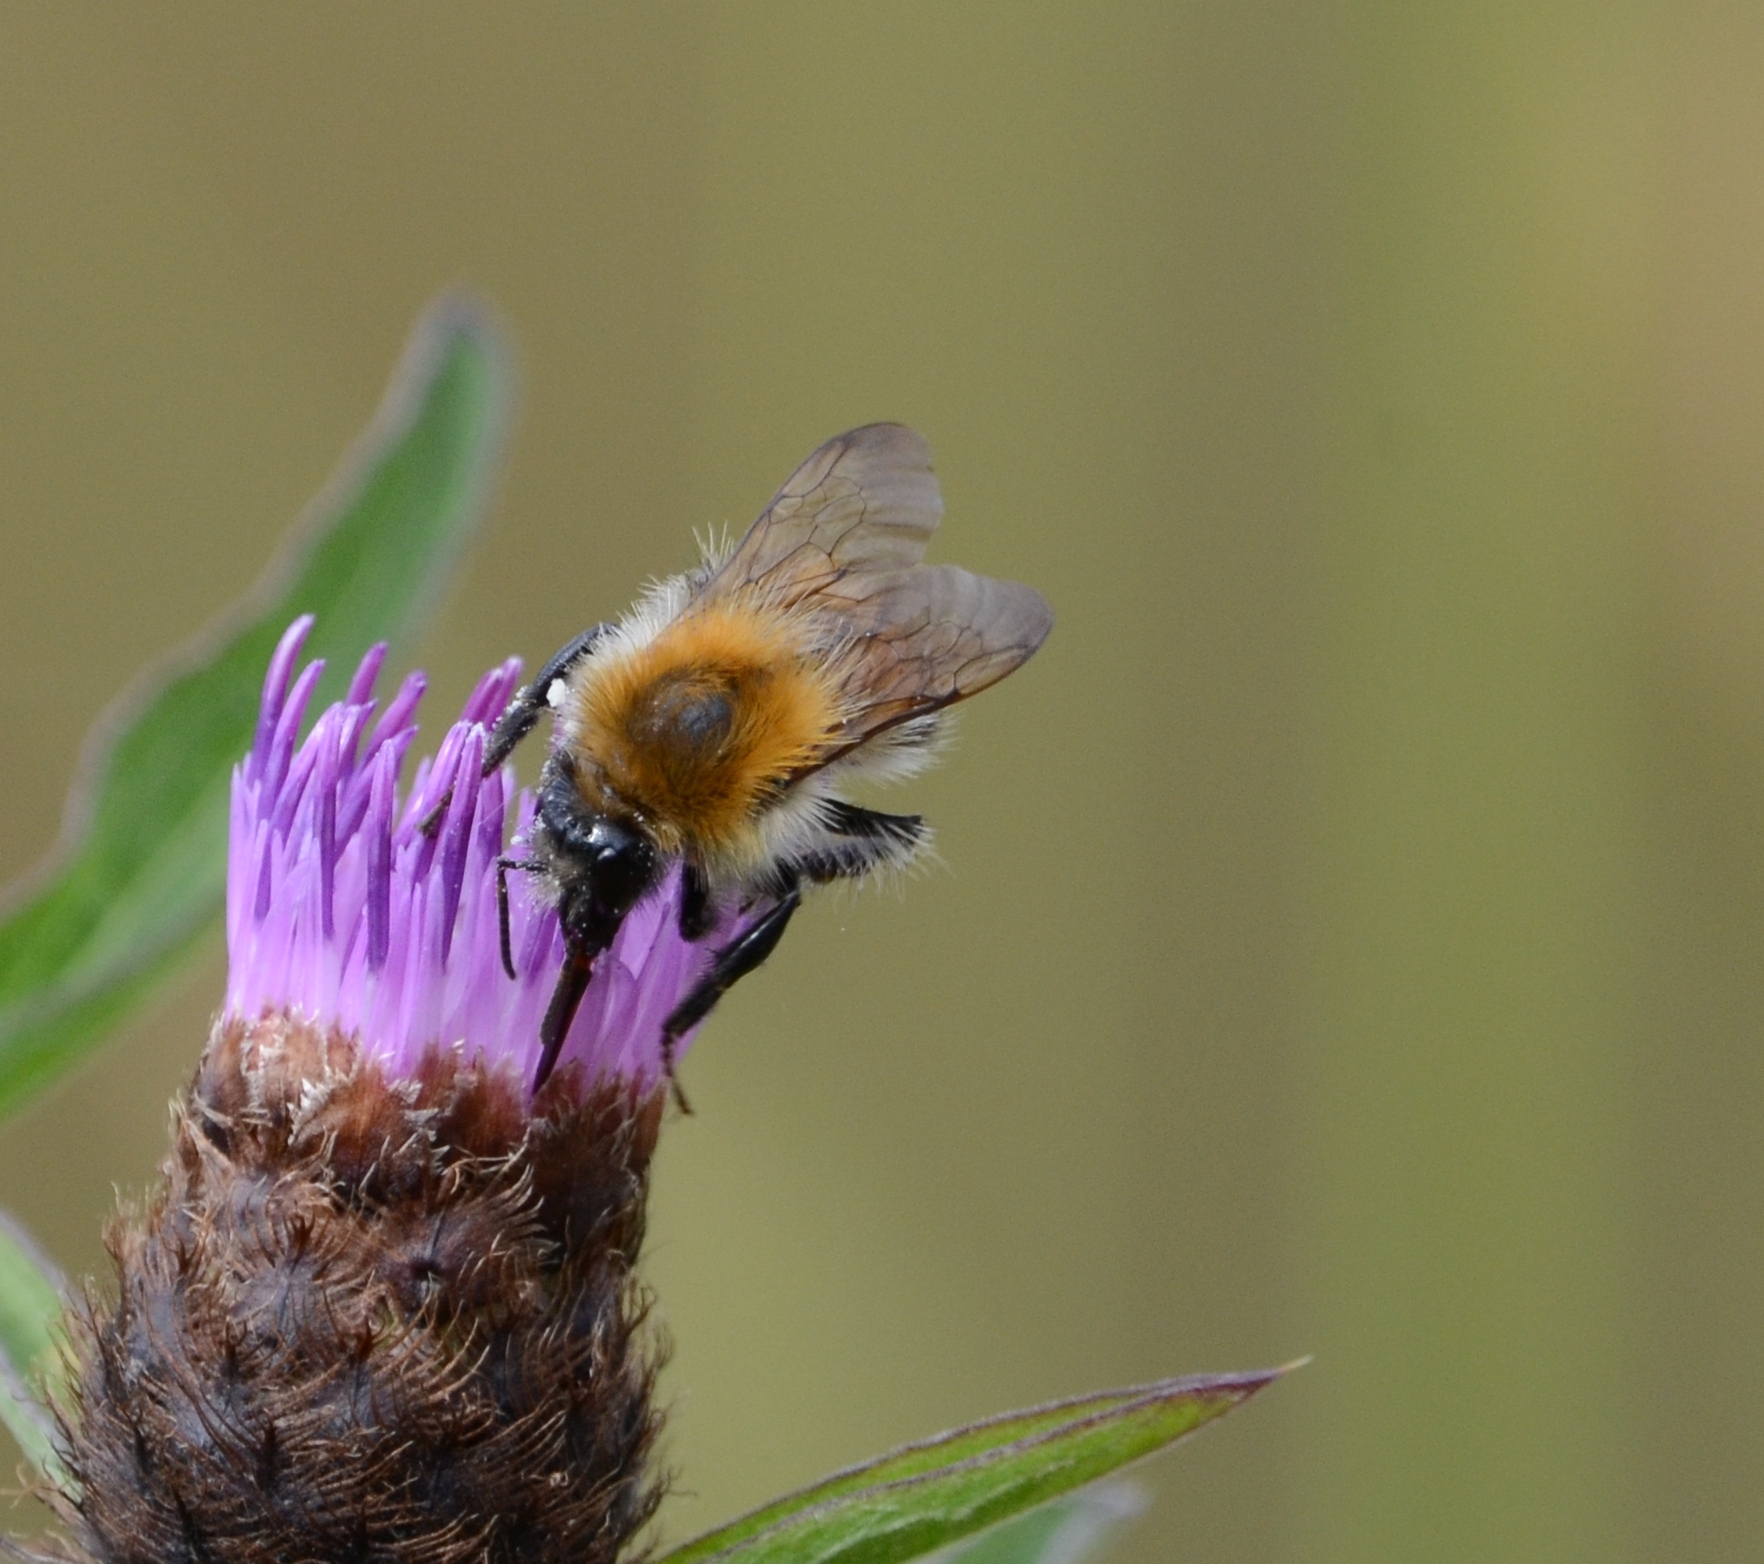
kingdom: Animalia
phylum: Arthropoda
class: Insecta
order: Hymenoptera
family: Apidae
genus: Bombus
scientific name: Bombus pascuorum
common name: Common carder bee
